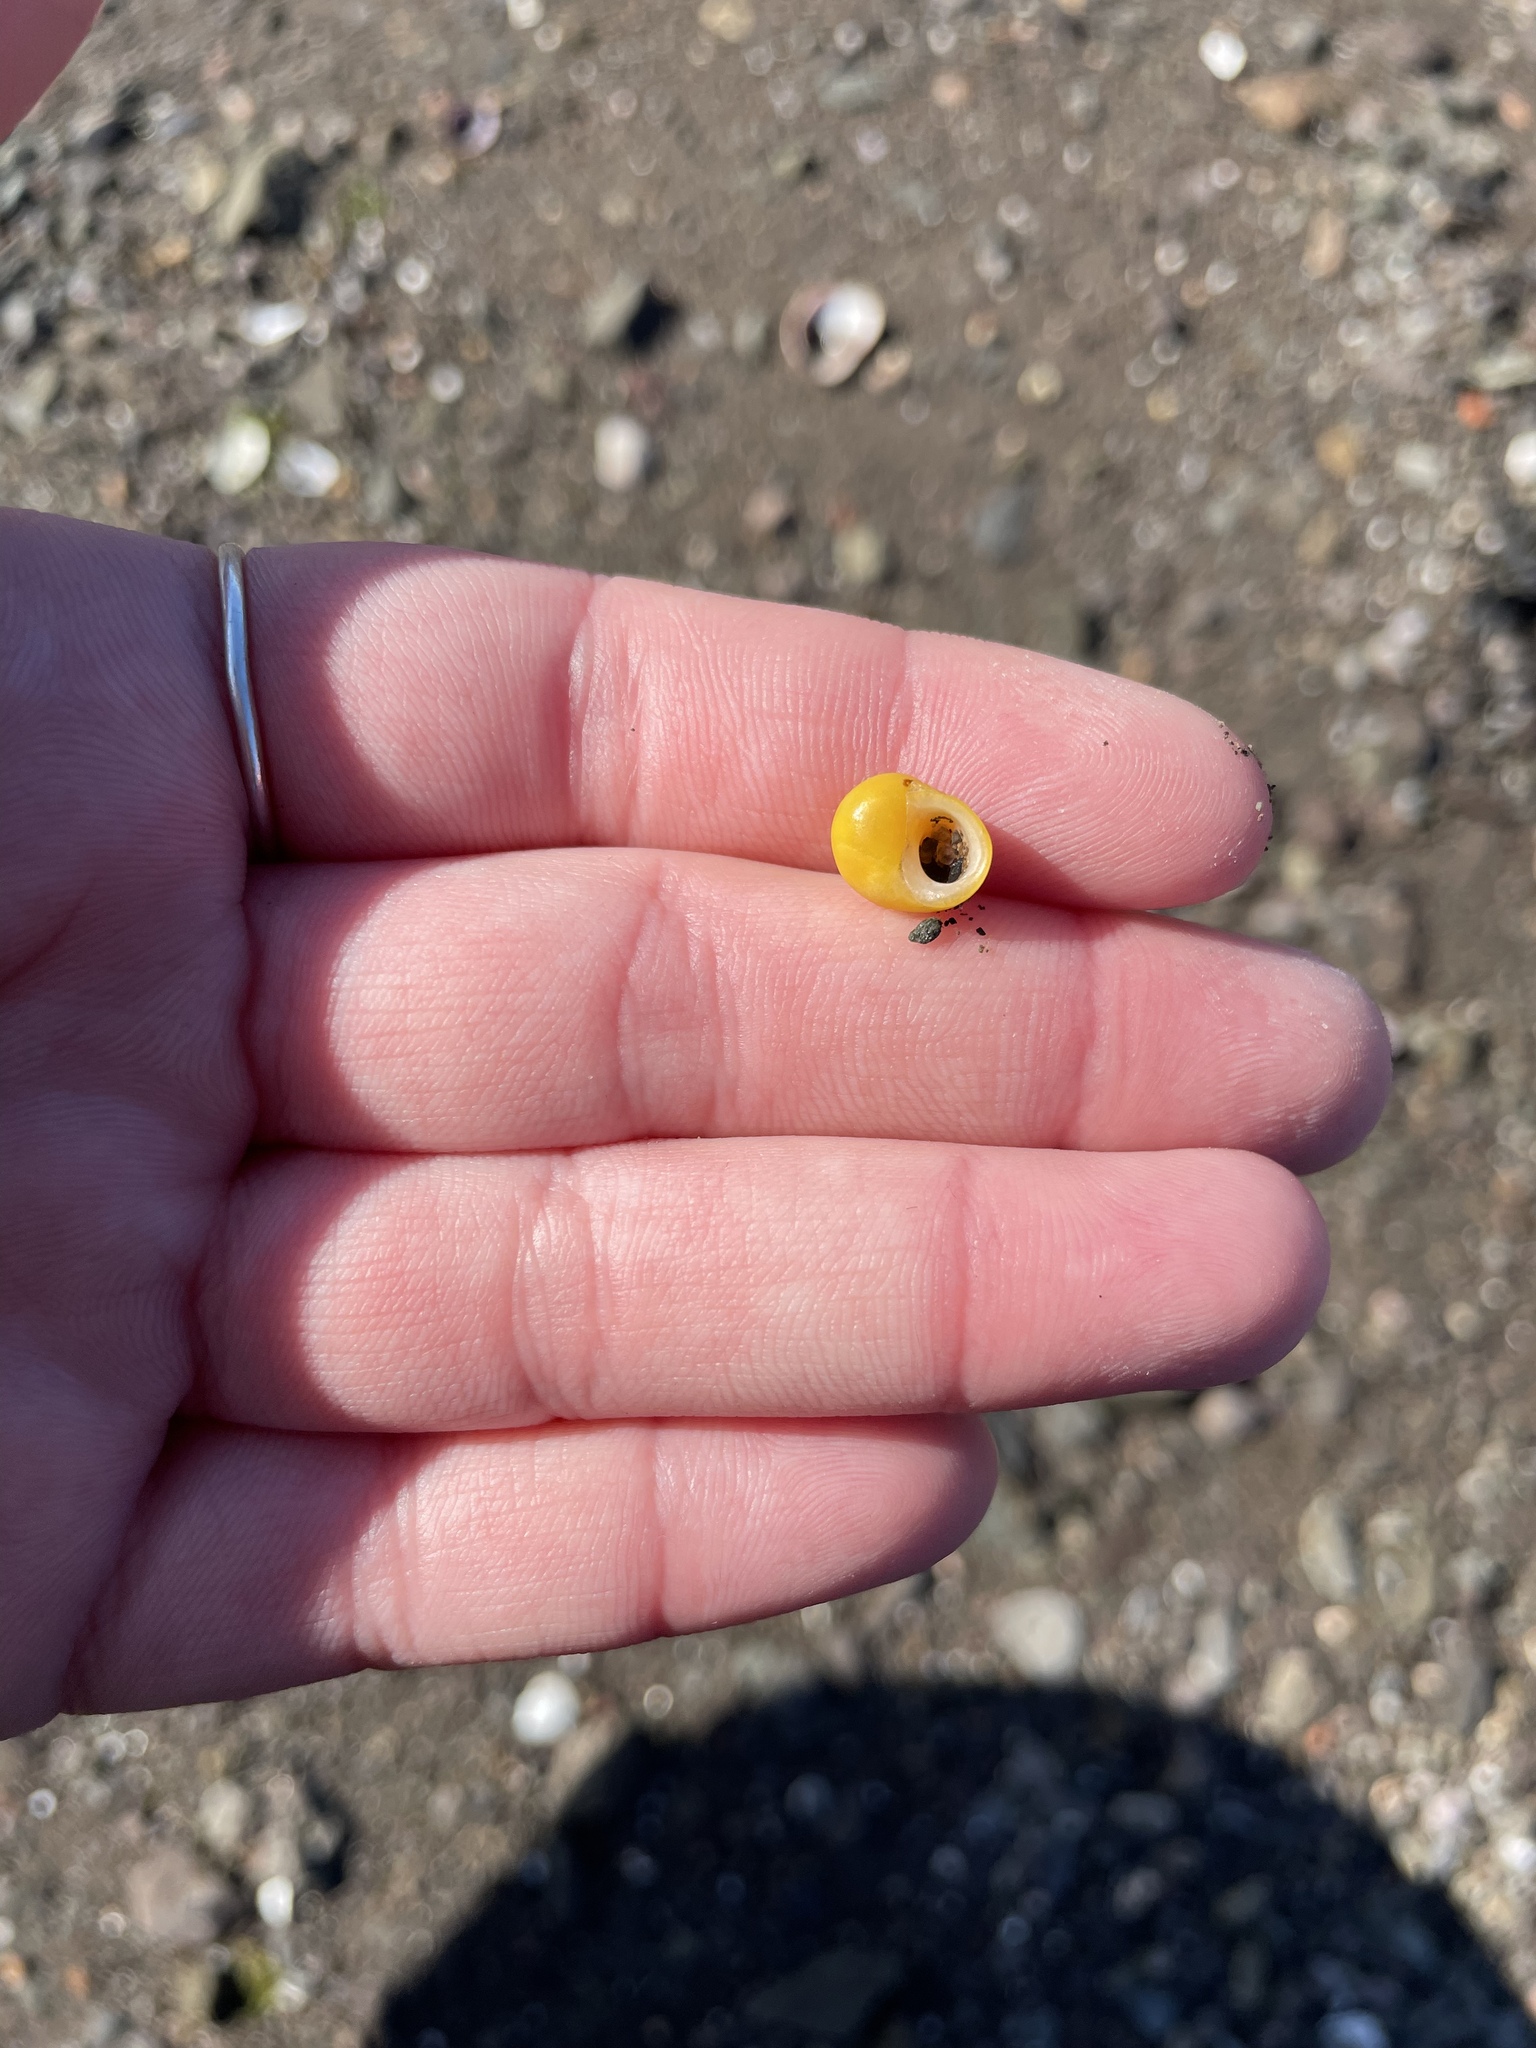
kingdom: Animalia
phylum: Mollusca
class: Gastropoda
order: Littorinimorpha
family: Littorinidae
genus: Littorina
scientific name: Littorina obtusata
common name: Flat periwinkle
